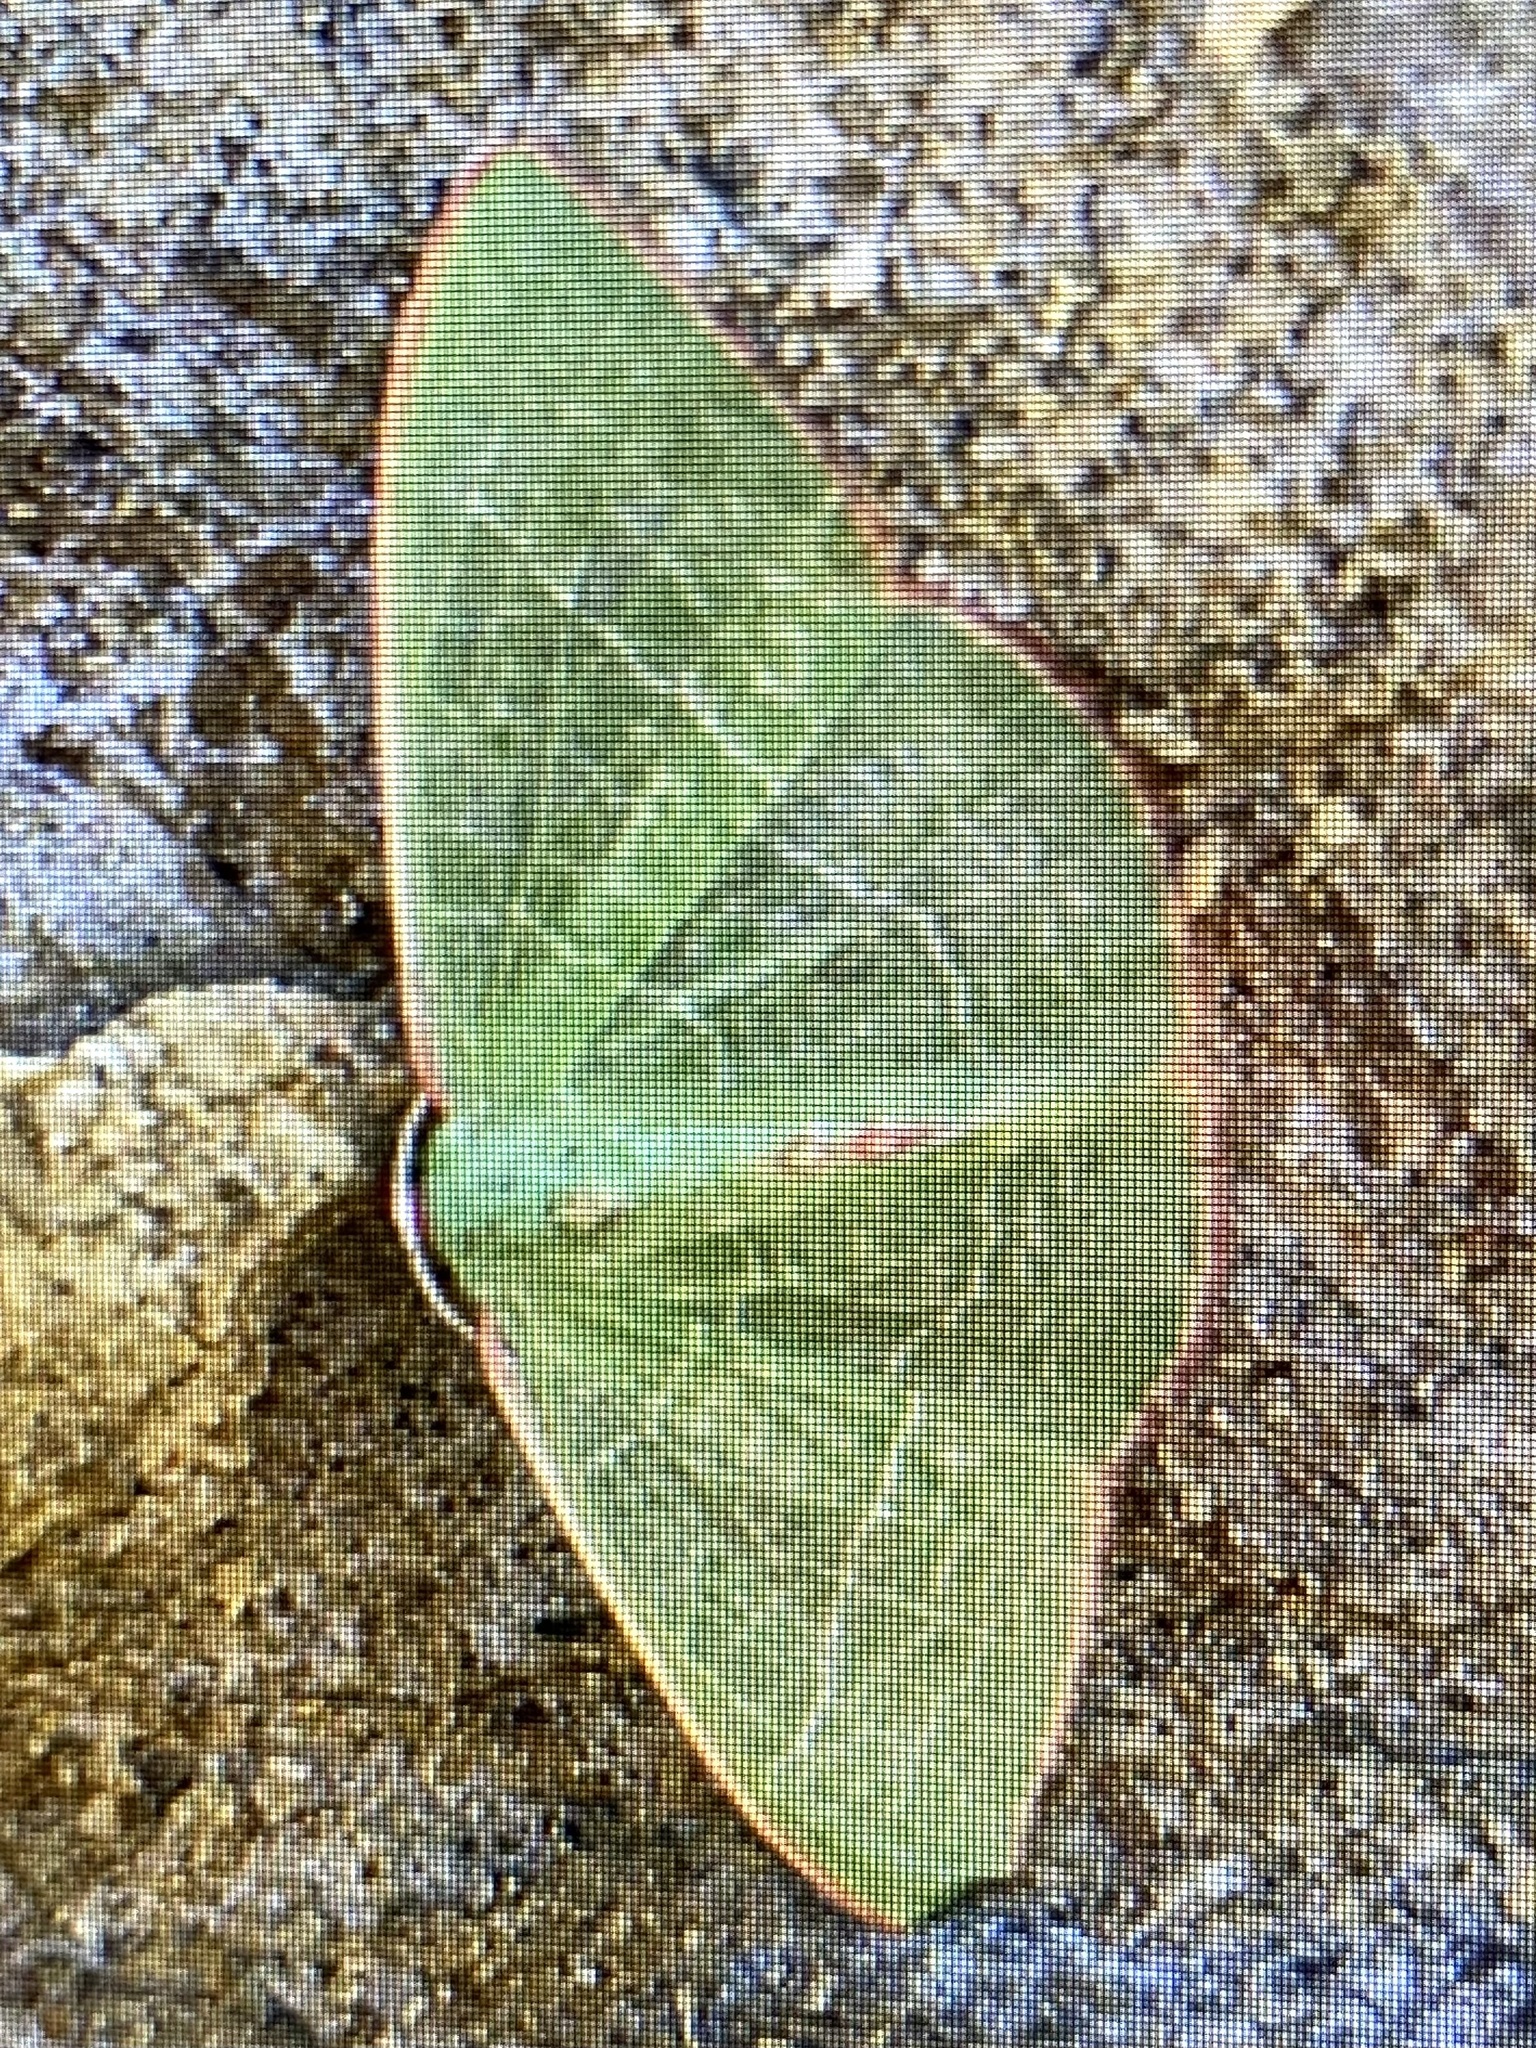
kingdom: Animalia
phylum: Arthropoda
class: Insecta
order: Lepidoptera
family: Geometridae
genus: Nemoria
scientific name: Nemoria leptalea
